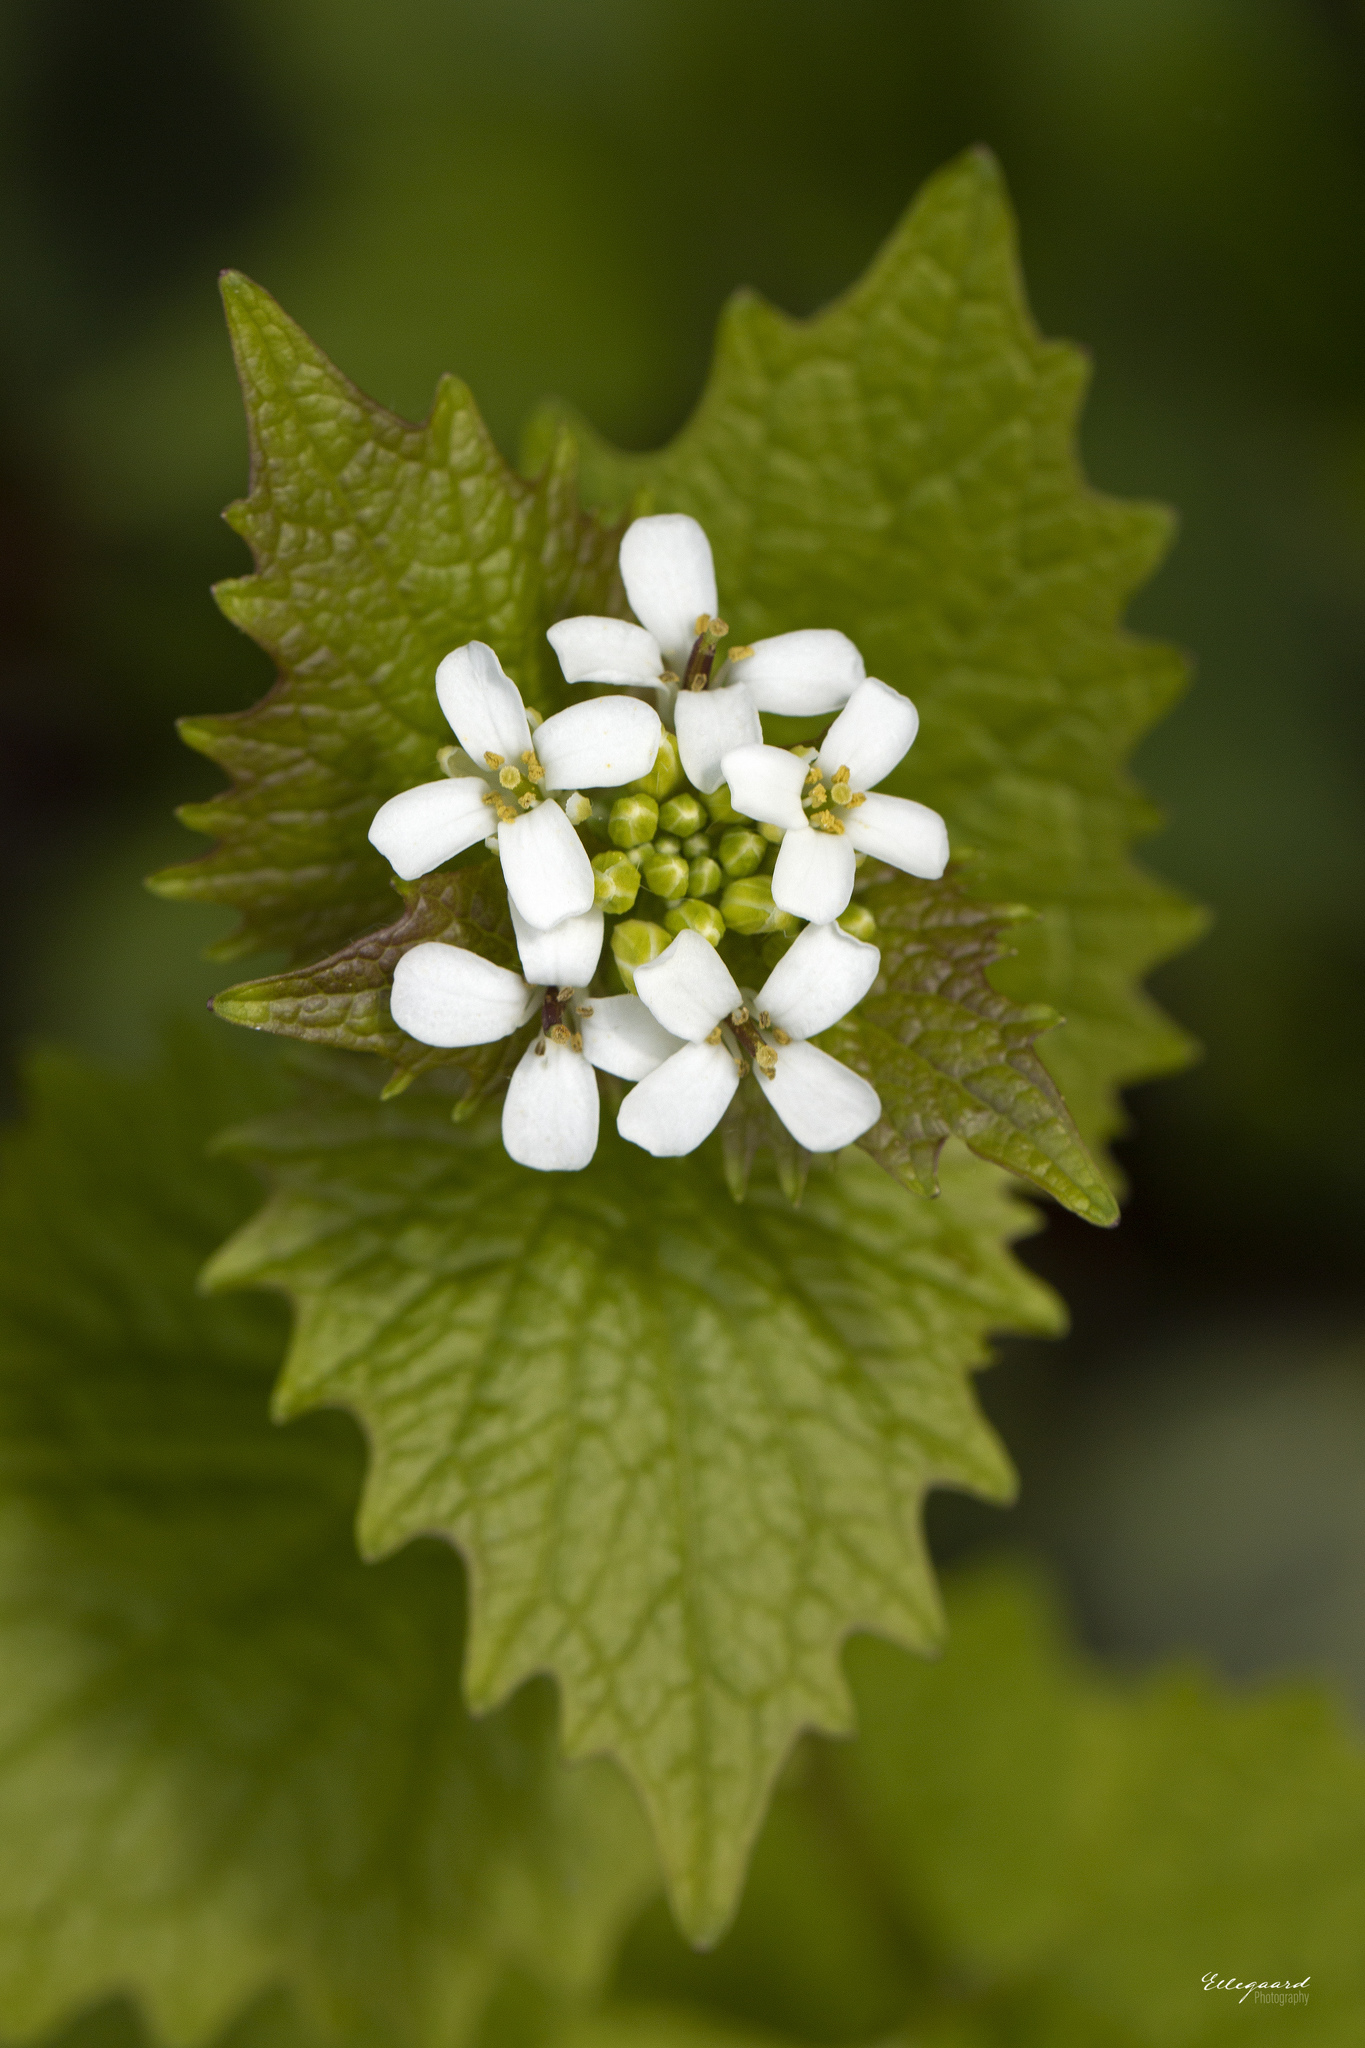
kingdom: Plantae
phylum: Tracheophyta
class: Magnoliopsida
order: Brassicales
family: Brassicaceae
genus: Alliaria
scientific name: Alliaria petiolata
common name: Garlic mustard
